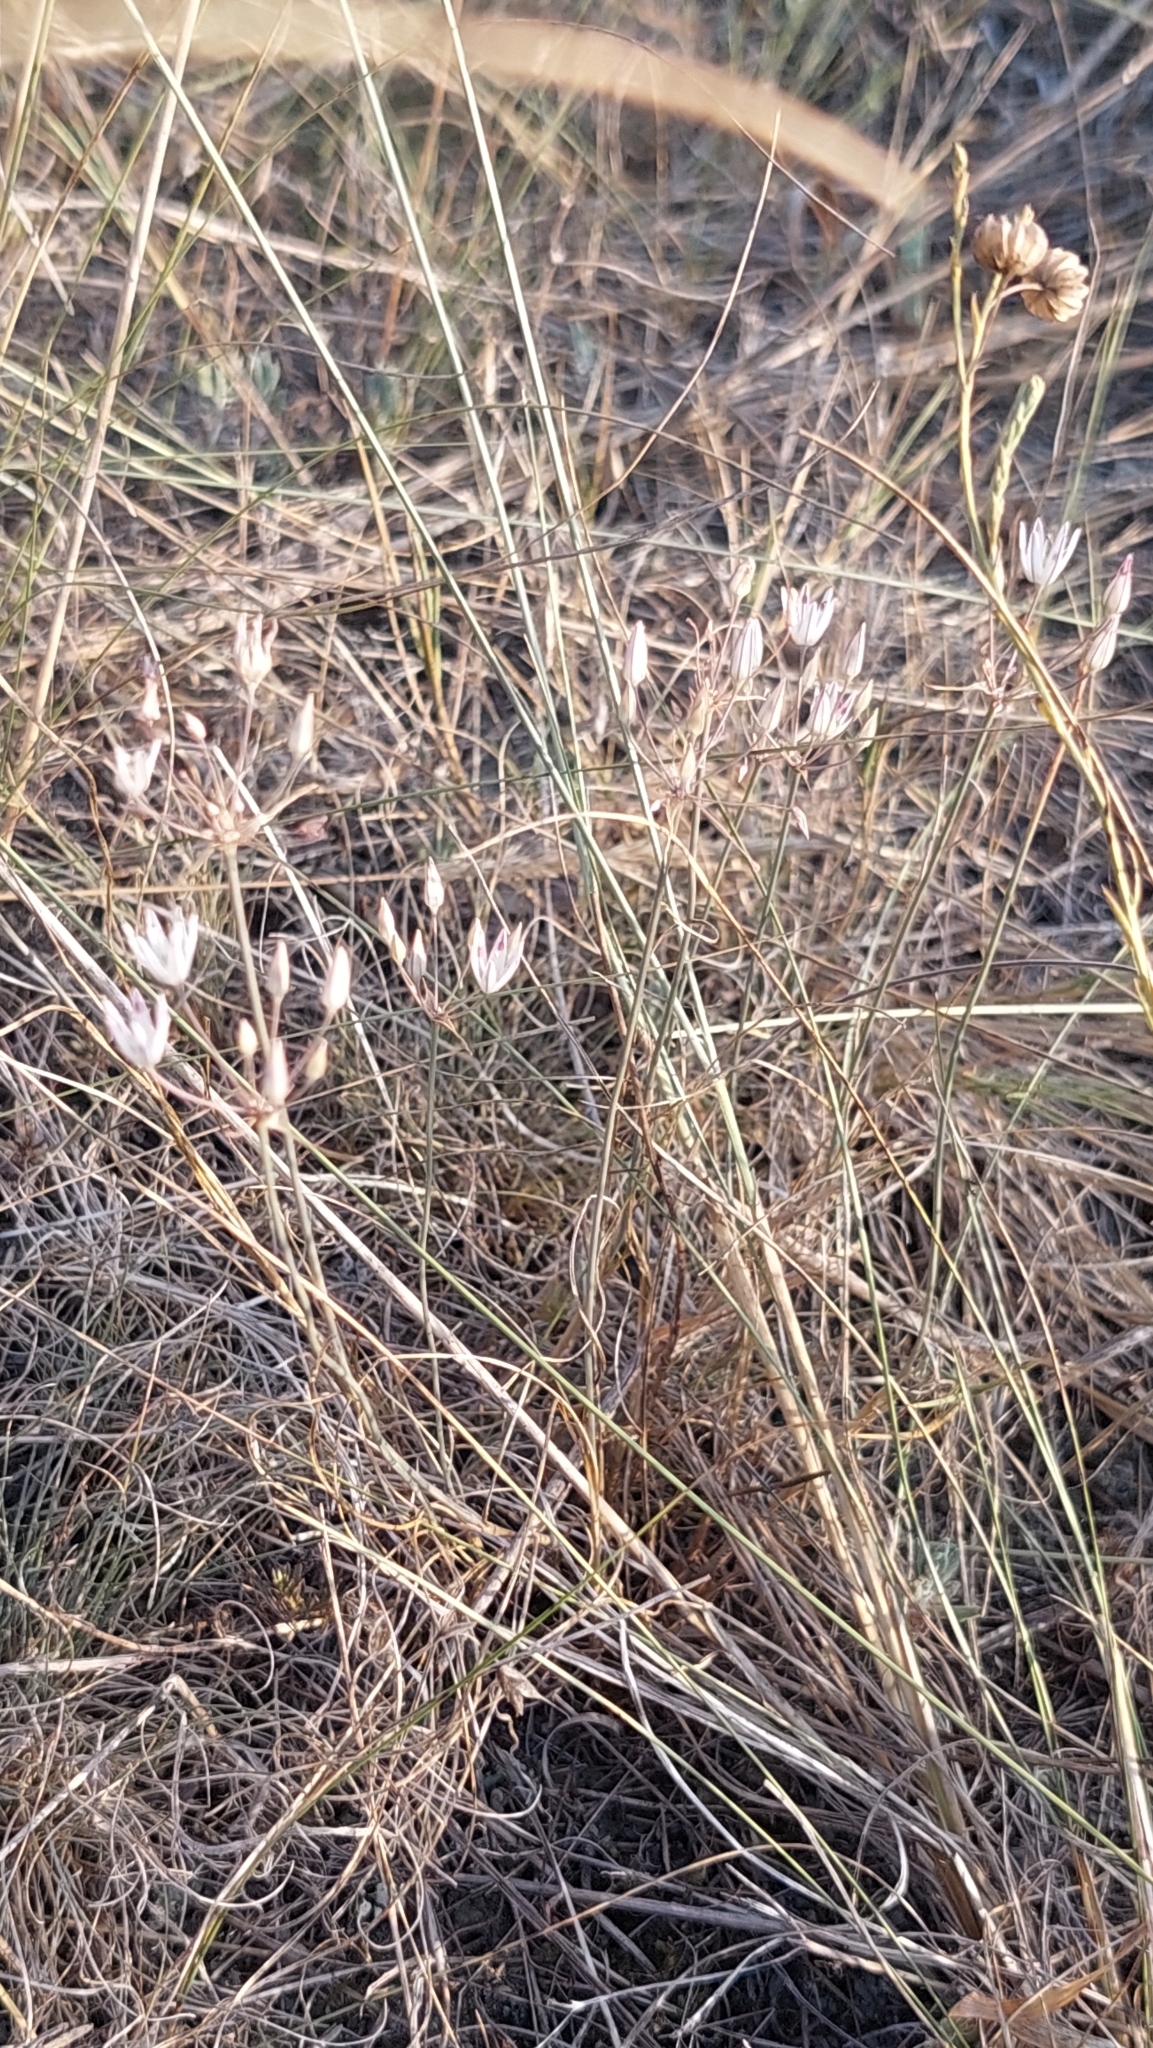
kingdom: Plantae
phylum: Tracheophyta
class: Liliopsida
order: Asparagales
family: Amaryllidaceae
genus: Allium
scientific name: Allium moschatum
